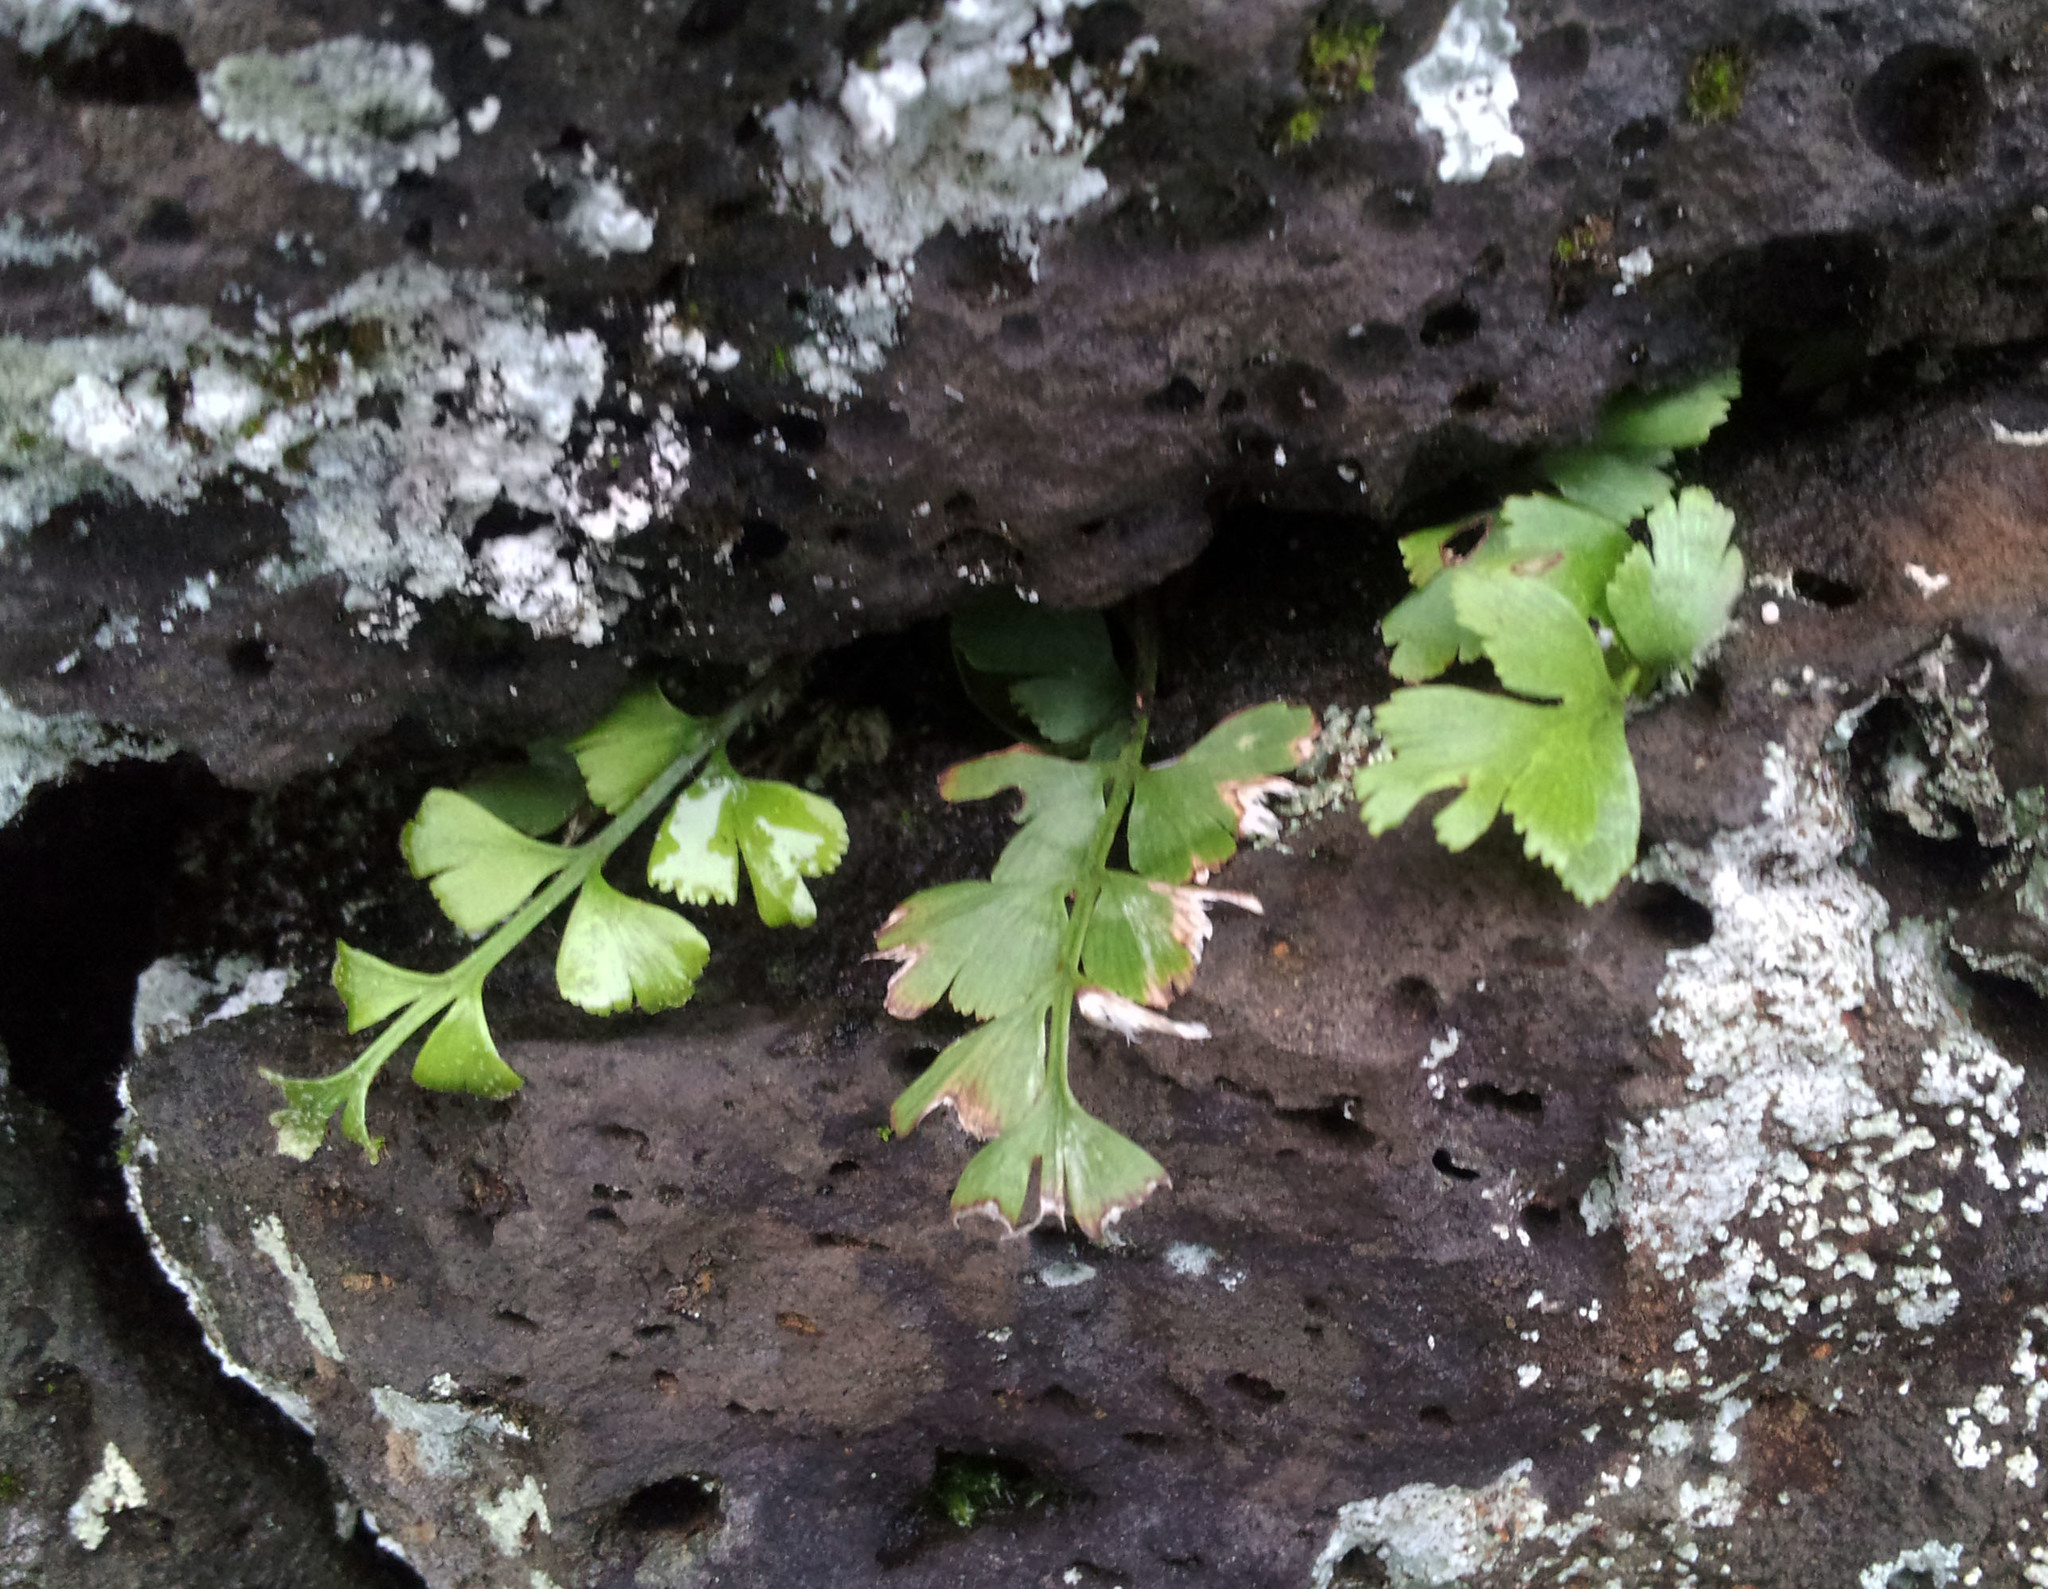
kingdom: Plantae
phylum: Tracheophyta
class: Polypodiopsida
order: Polypodiales
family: Aspleniaceae
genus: Asplenium
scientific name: Asplenium aethiopicum
